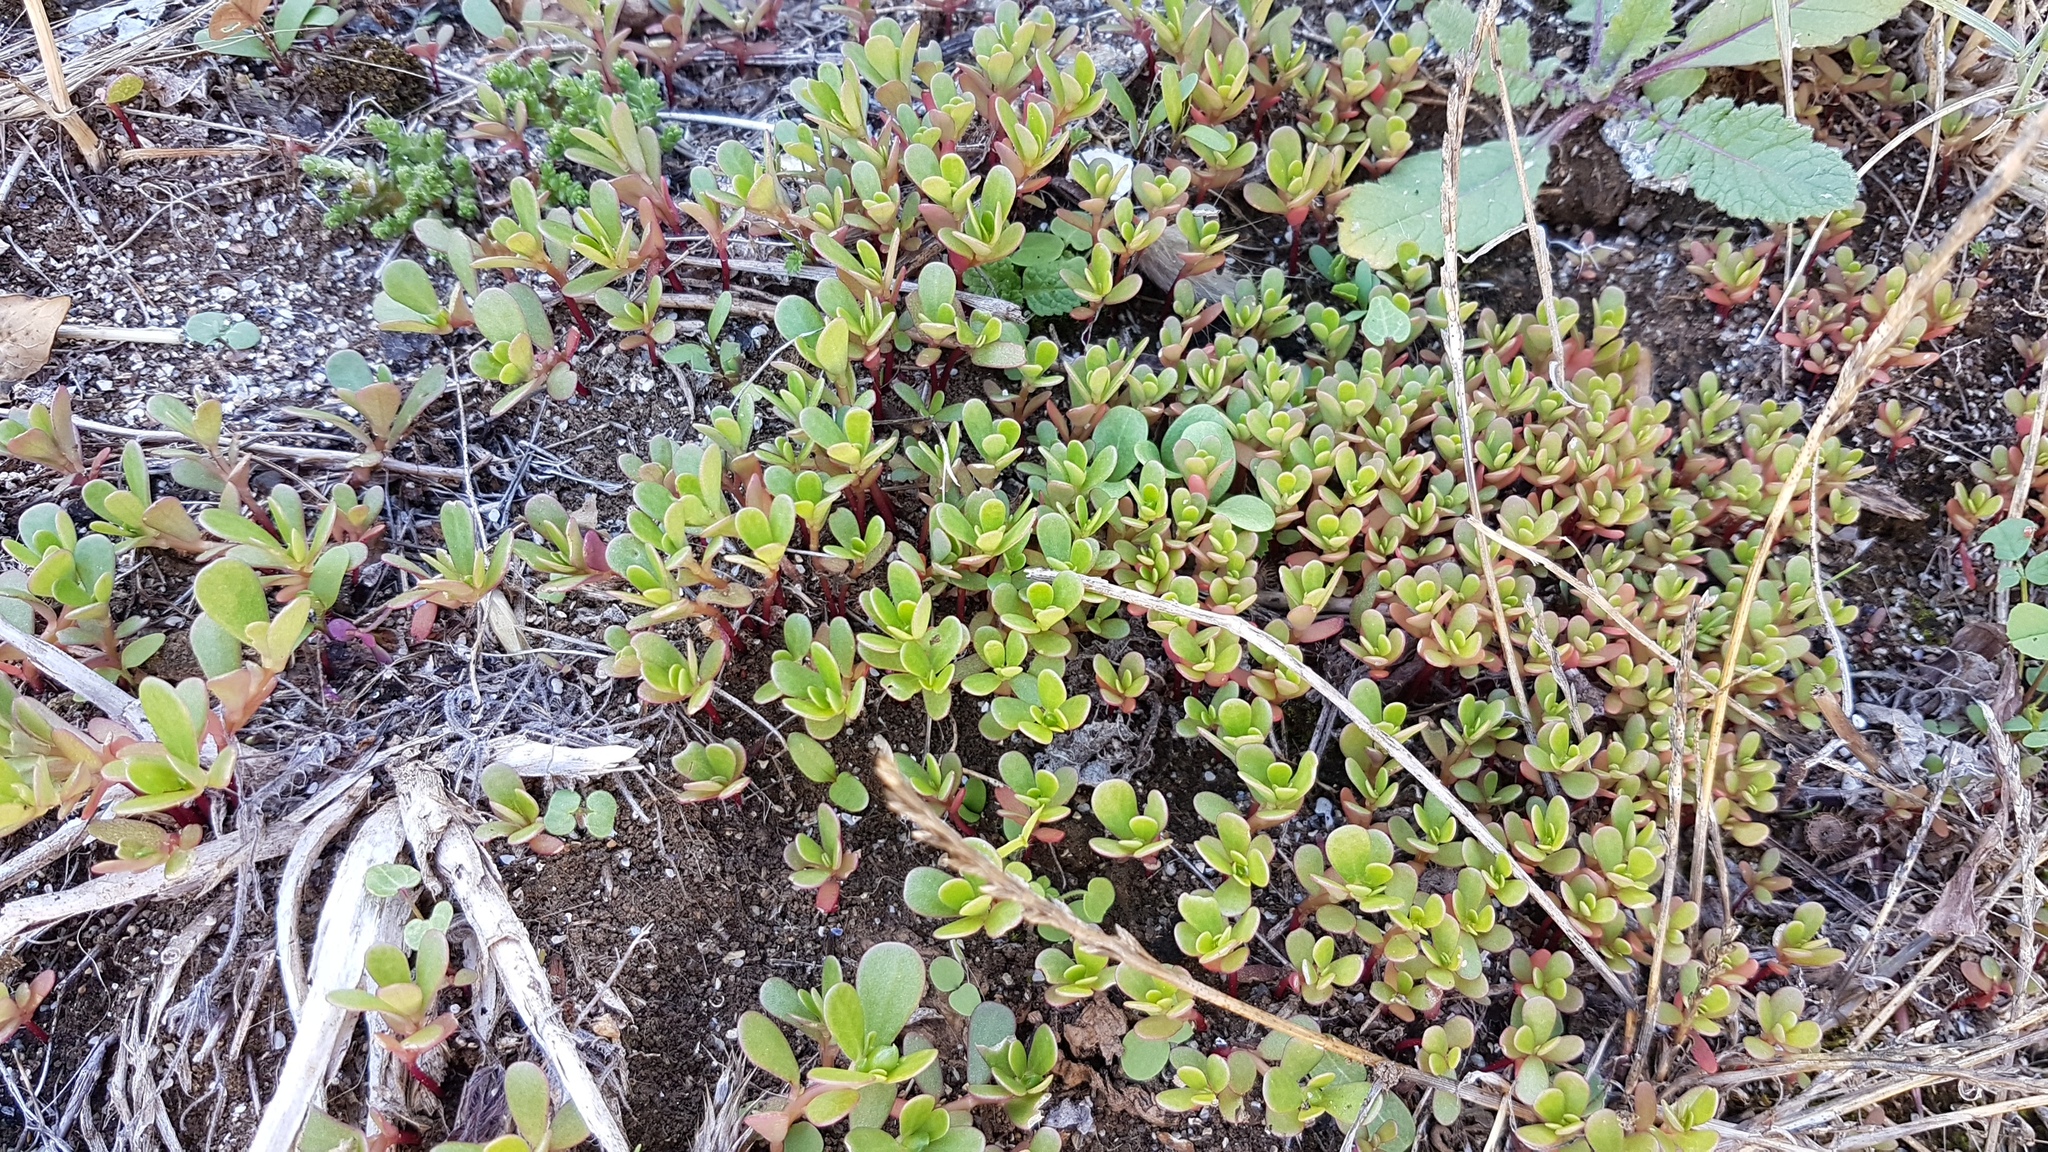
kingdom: Plantae
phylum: Tracheophyta
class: Magnoliopsida
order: Caryophyllales
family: Portulacaceae
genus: Portulaca
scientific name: Portulaca oleracea
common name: Common purslane
